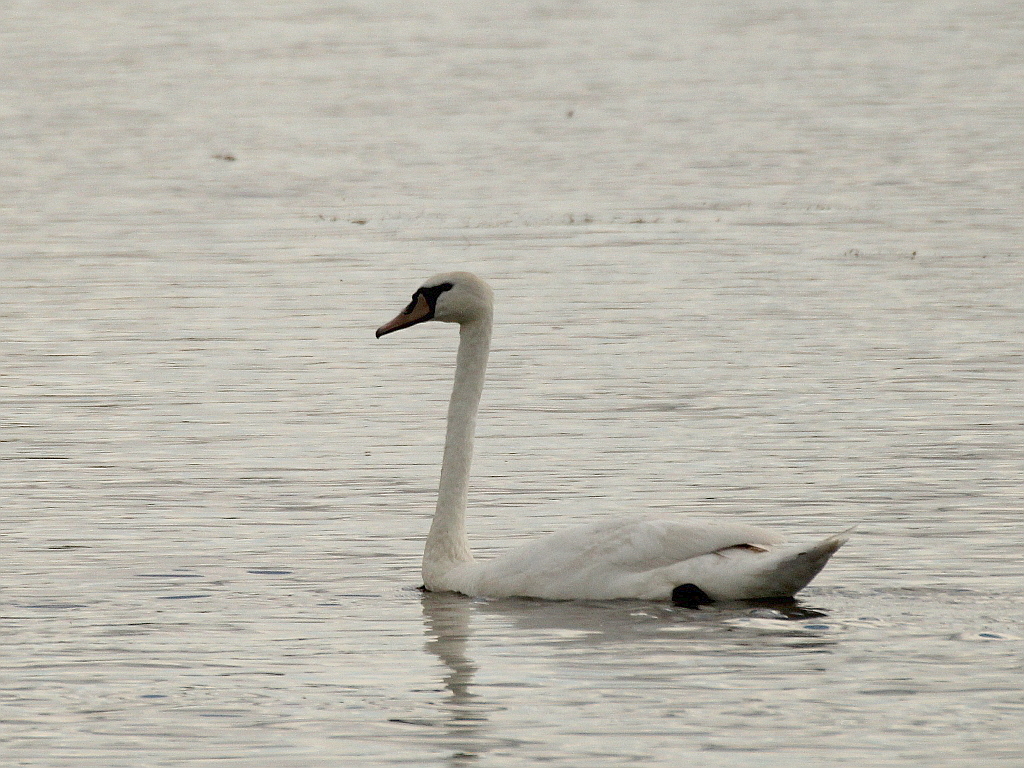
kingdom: Animalia
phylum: Chordata
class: Aves
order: Anseriformes
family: Anatidae
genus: Cygnus
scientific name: Cygnus olor
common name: Mute swan
